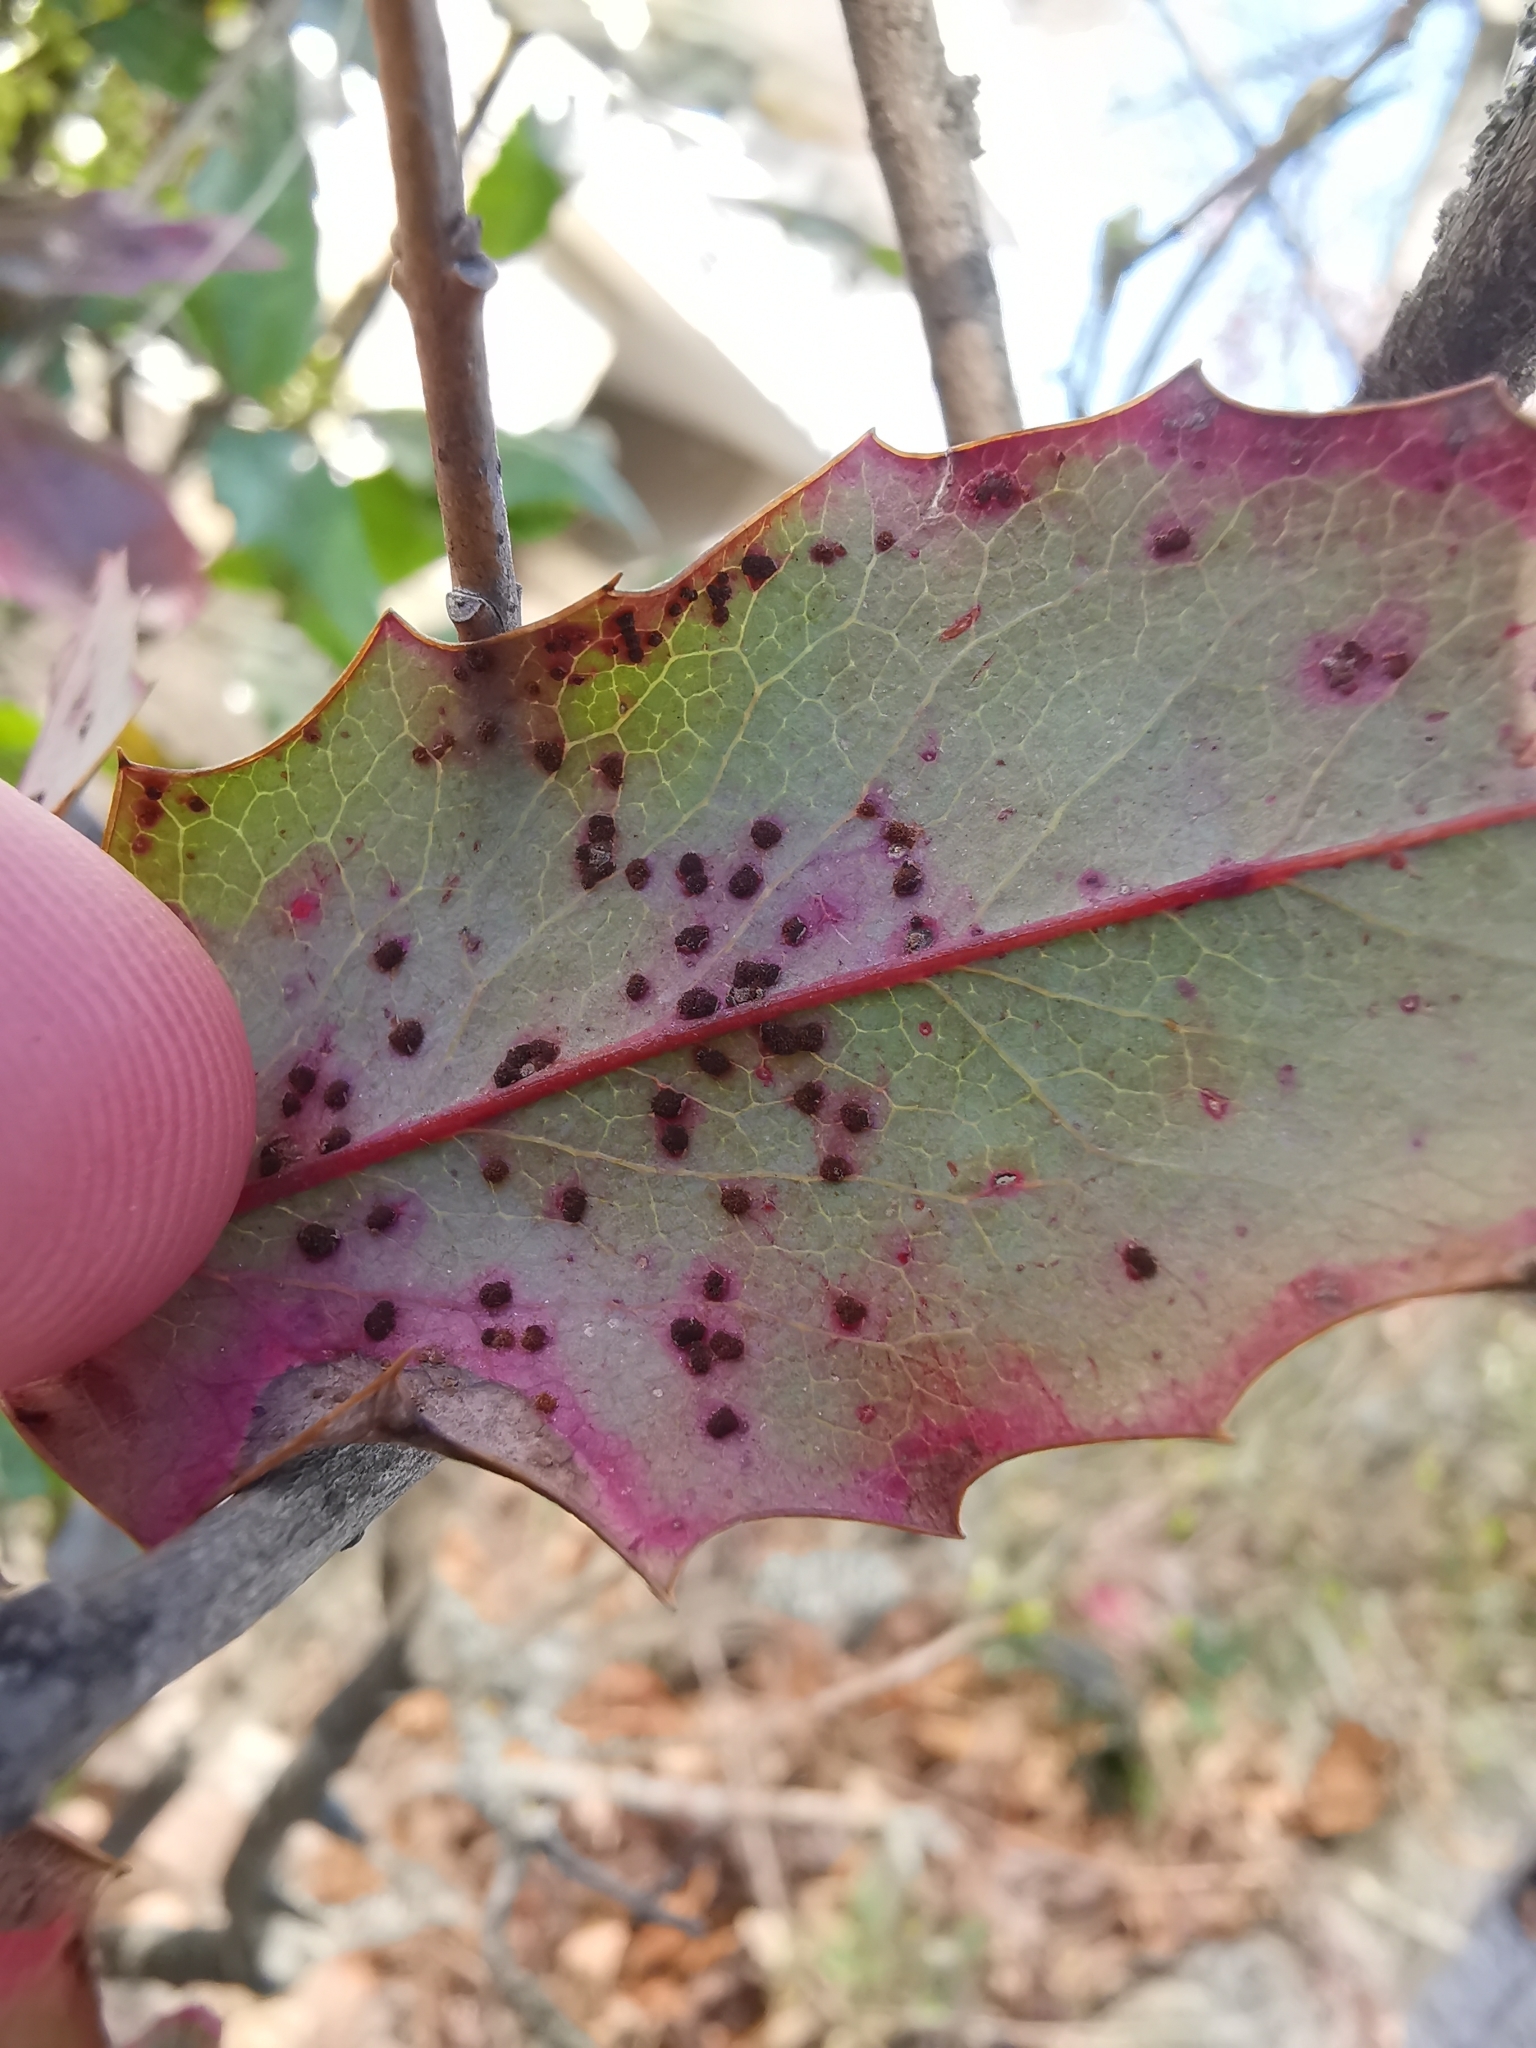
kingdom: Fungi
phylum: Basidiomycota
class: Pucciniomycetes
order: Pucciniales
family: Pucciniaceae
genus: Cumminsiella
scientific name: Cumminsiella mirabilissima
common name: Mahonia rust
